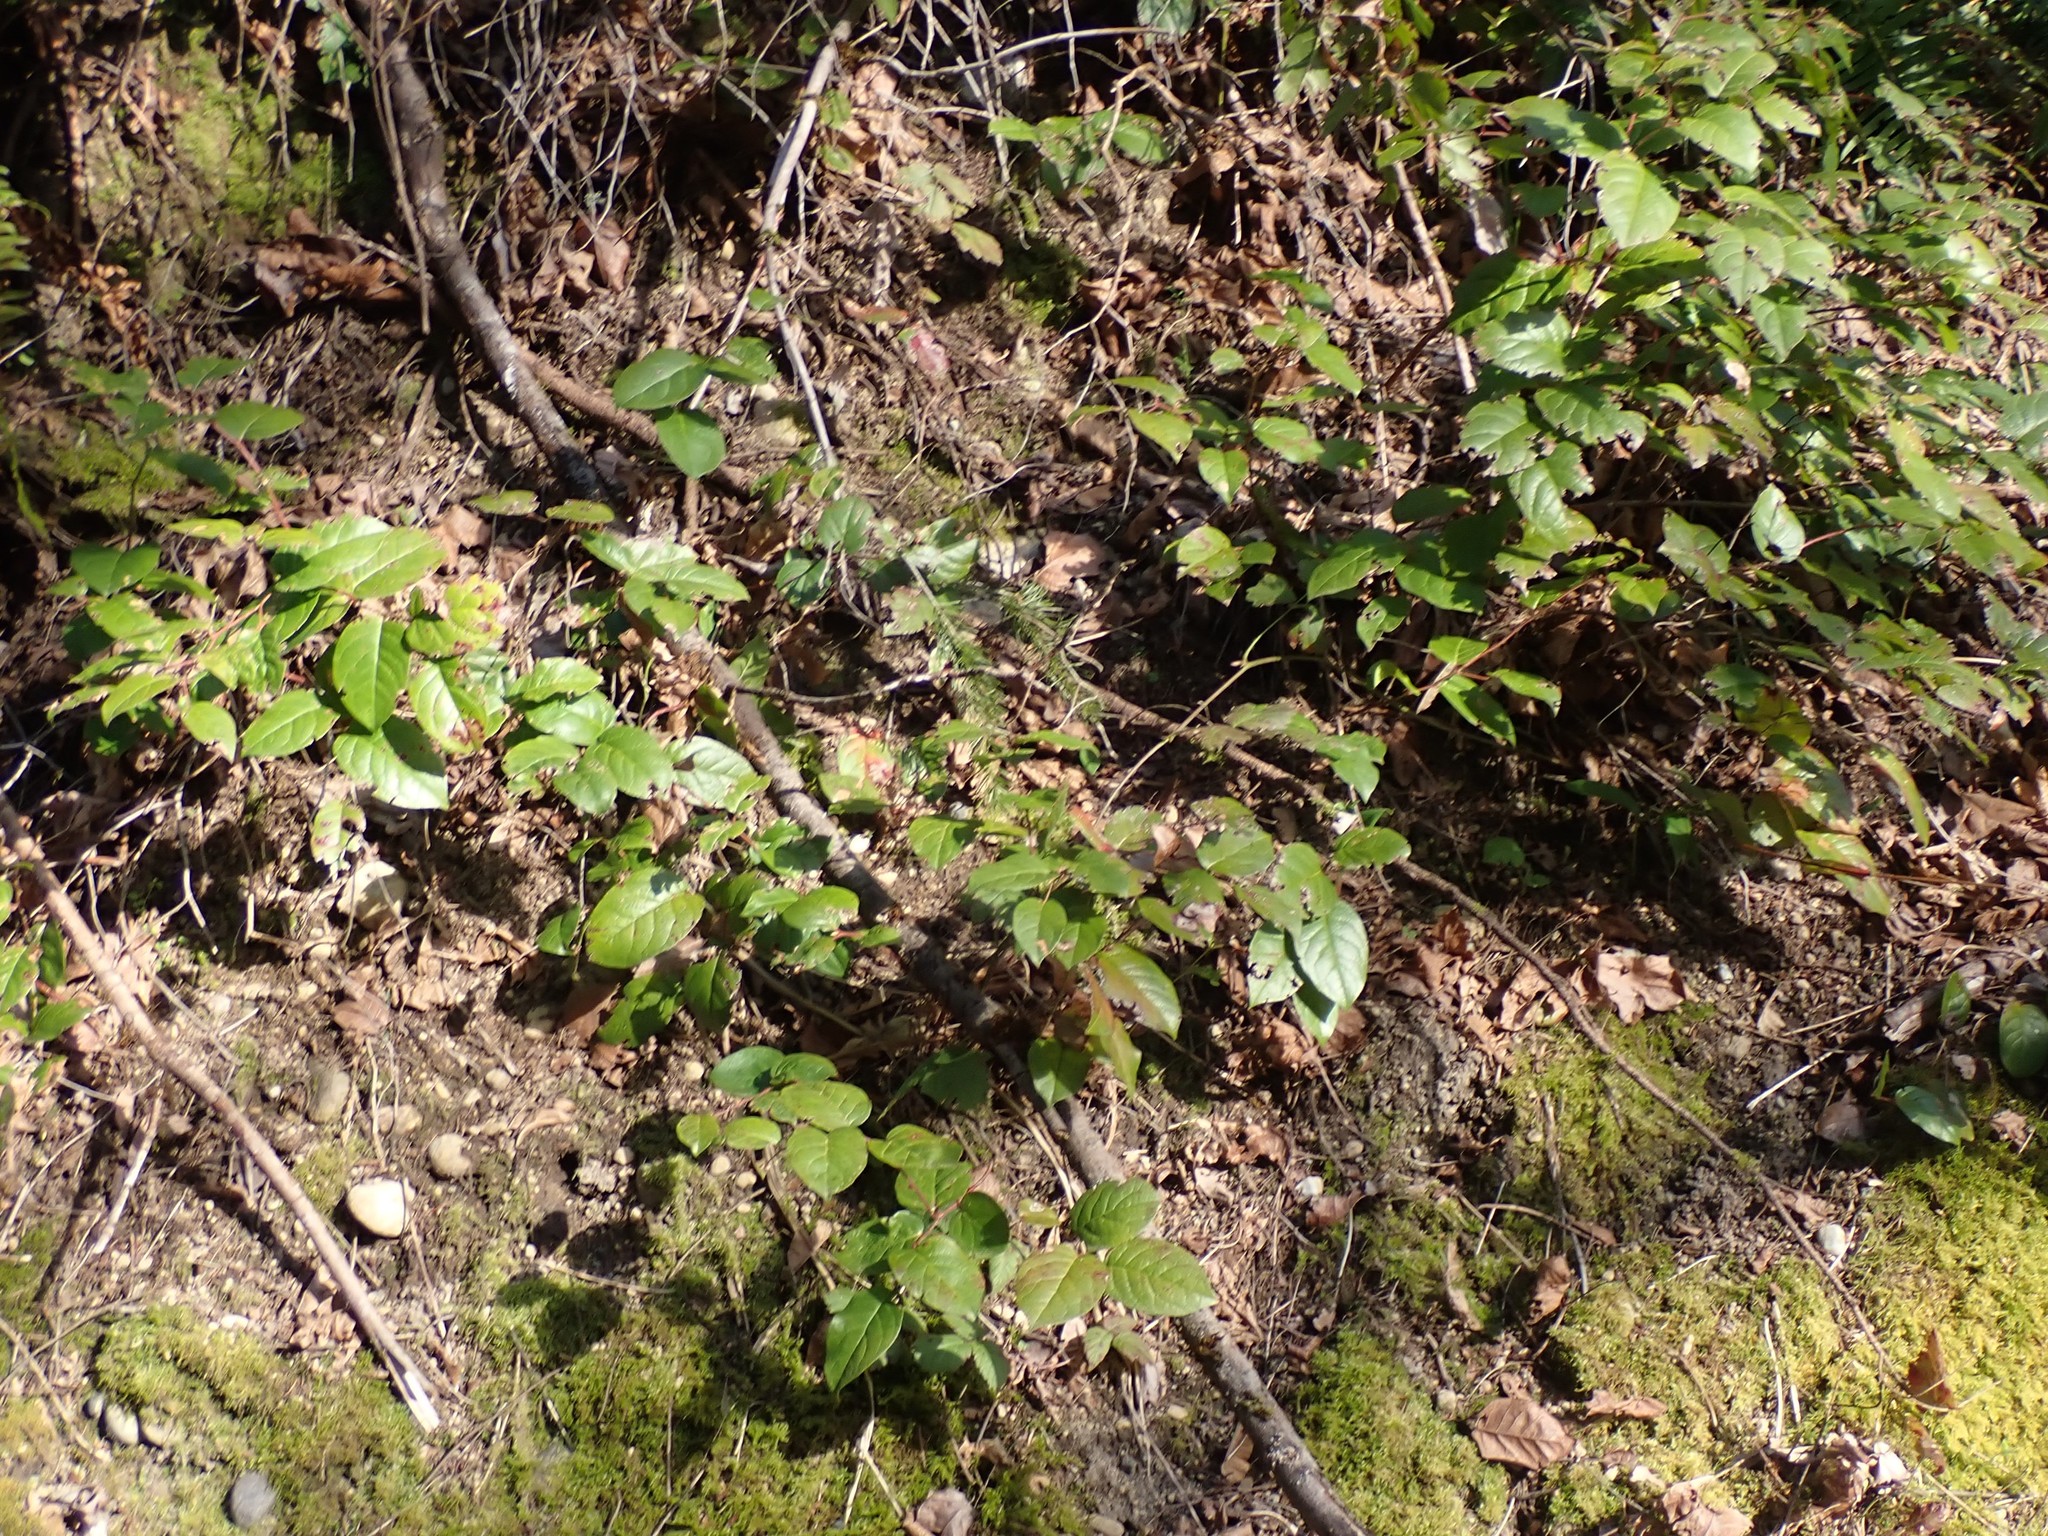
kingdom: Plantae
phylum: Tracheophyta
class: Magnoliopsida
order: Ericales
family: Ericaceae
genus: Gaultheria
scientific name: Gaultheria shallon
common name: Shallon
